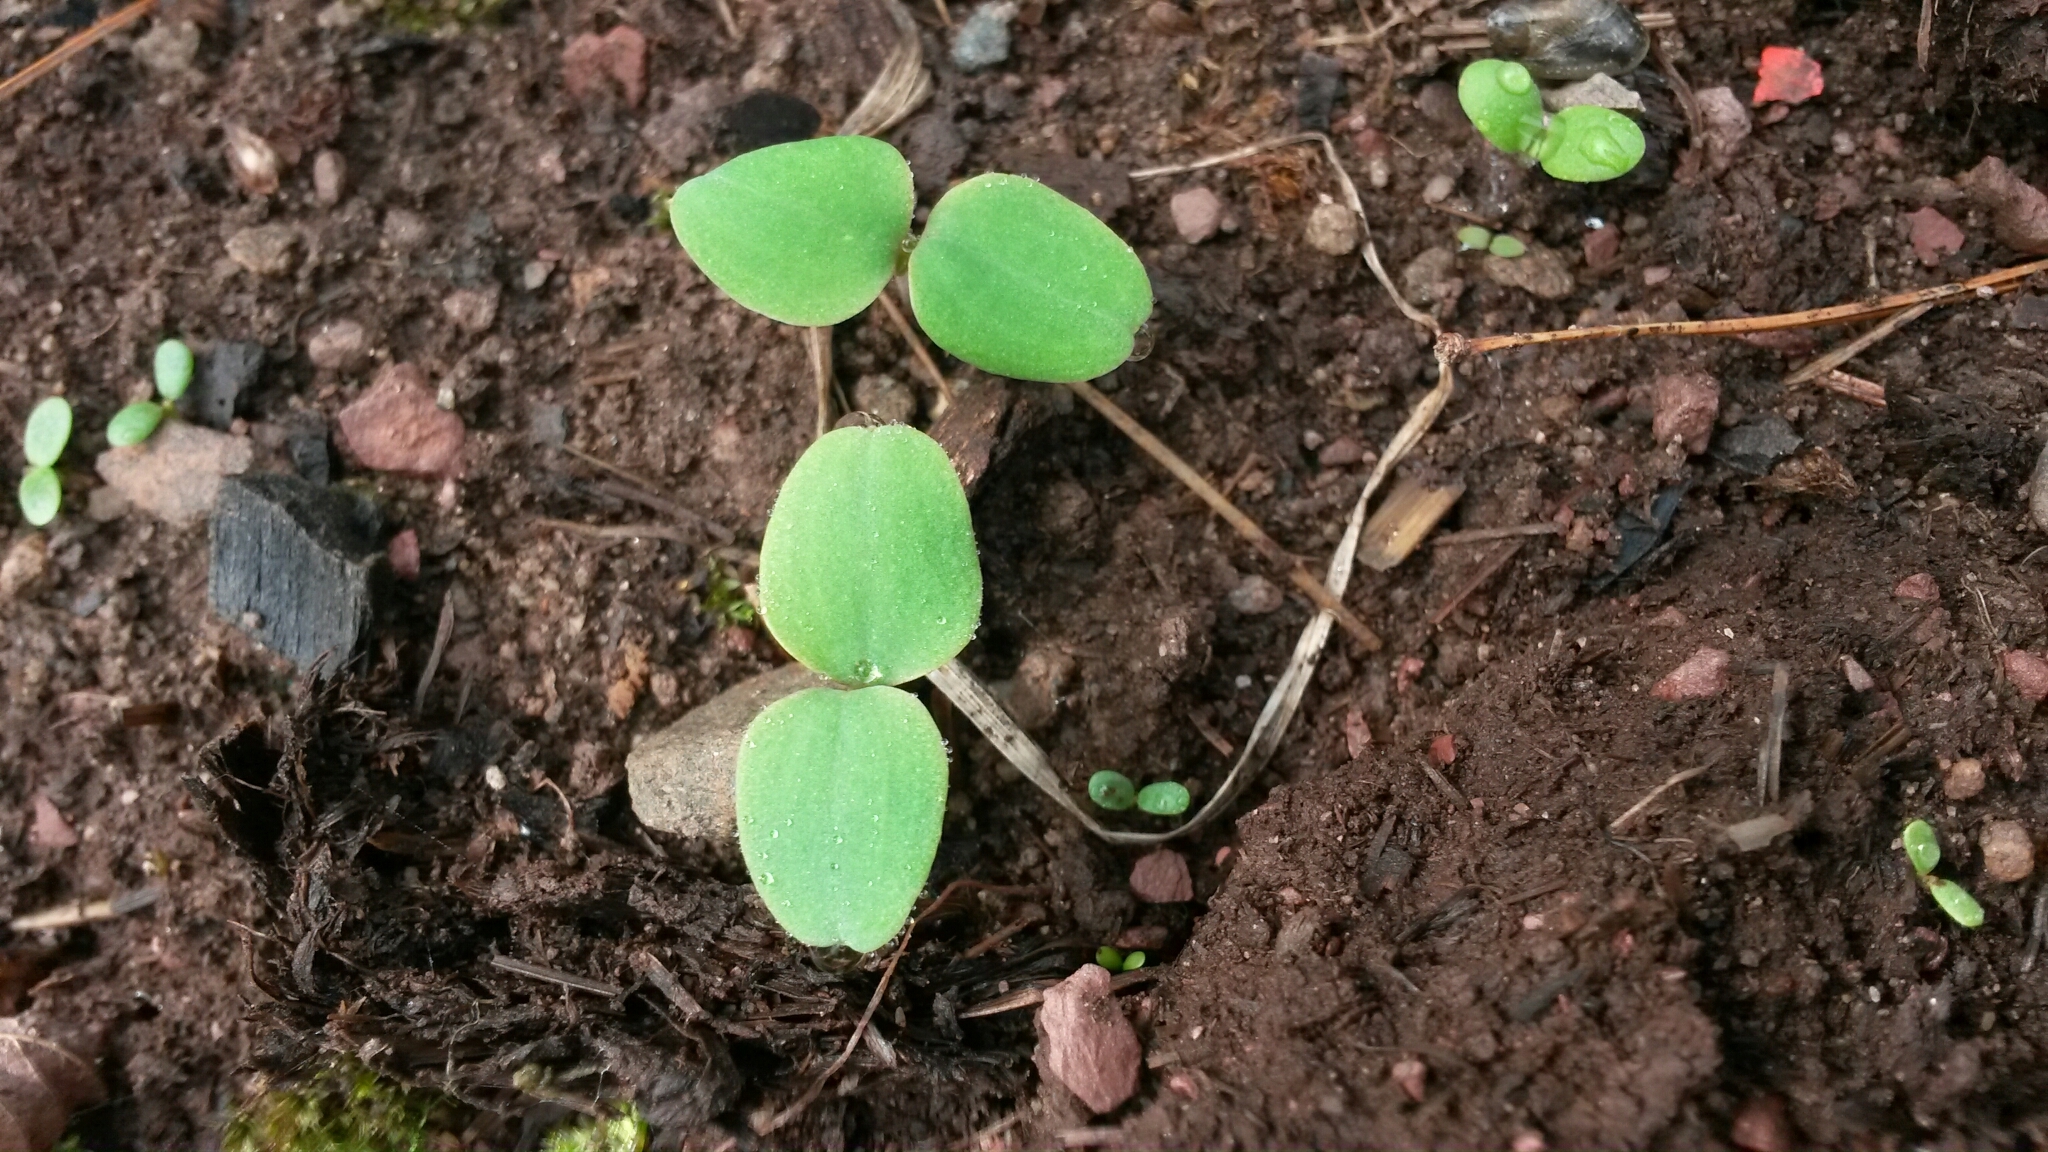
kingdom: Plantae
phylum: Tracheophyta
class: Magnoliopsida
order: Ericales
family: Balsaminaceae
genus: Impatiens
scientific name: Impatiens
